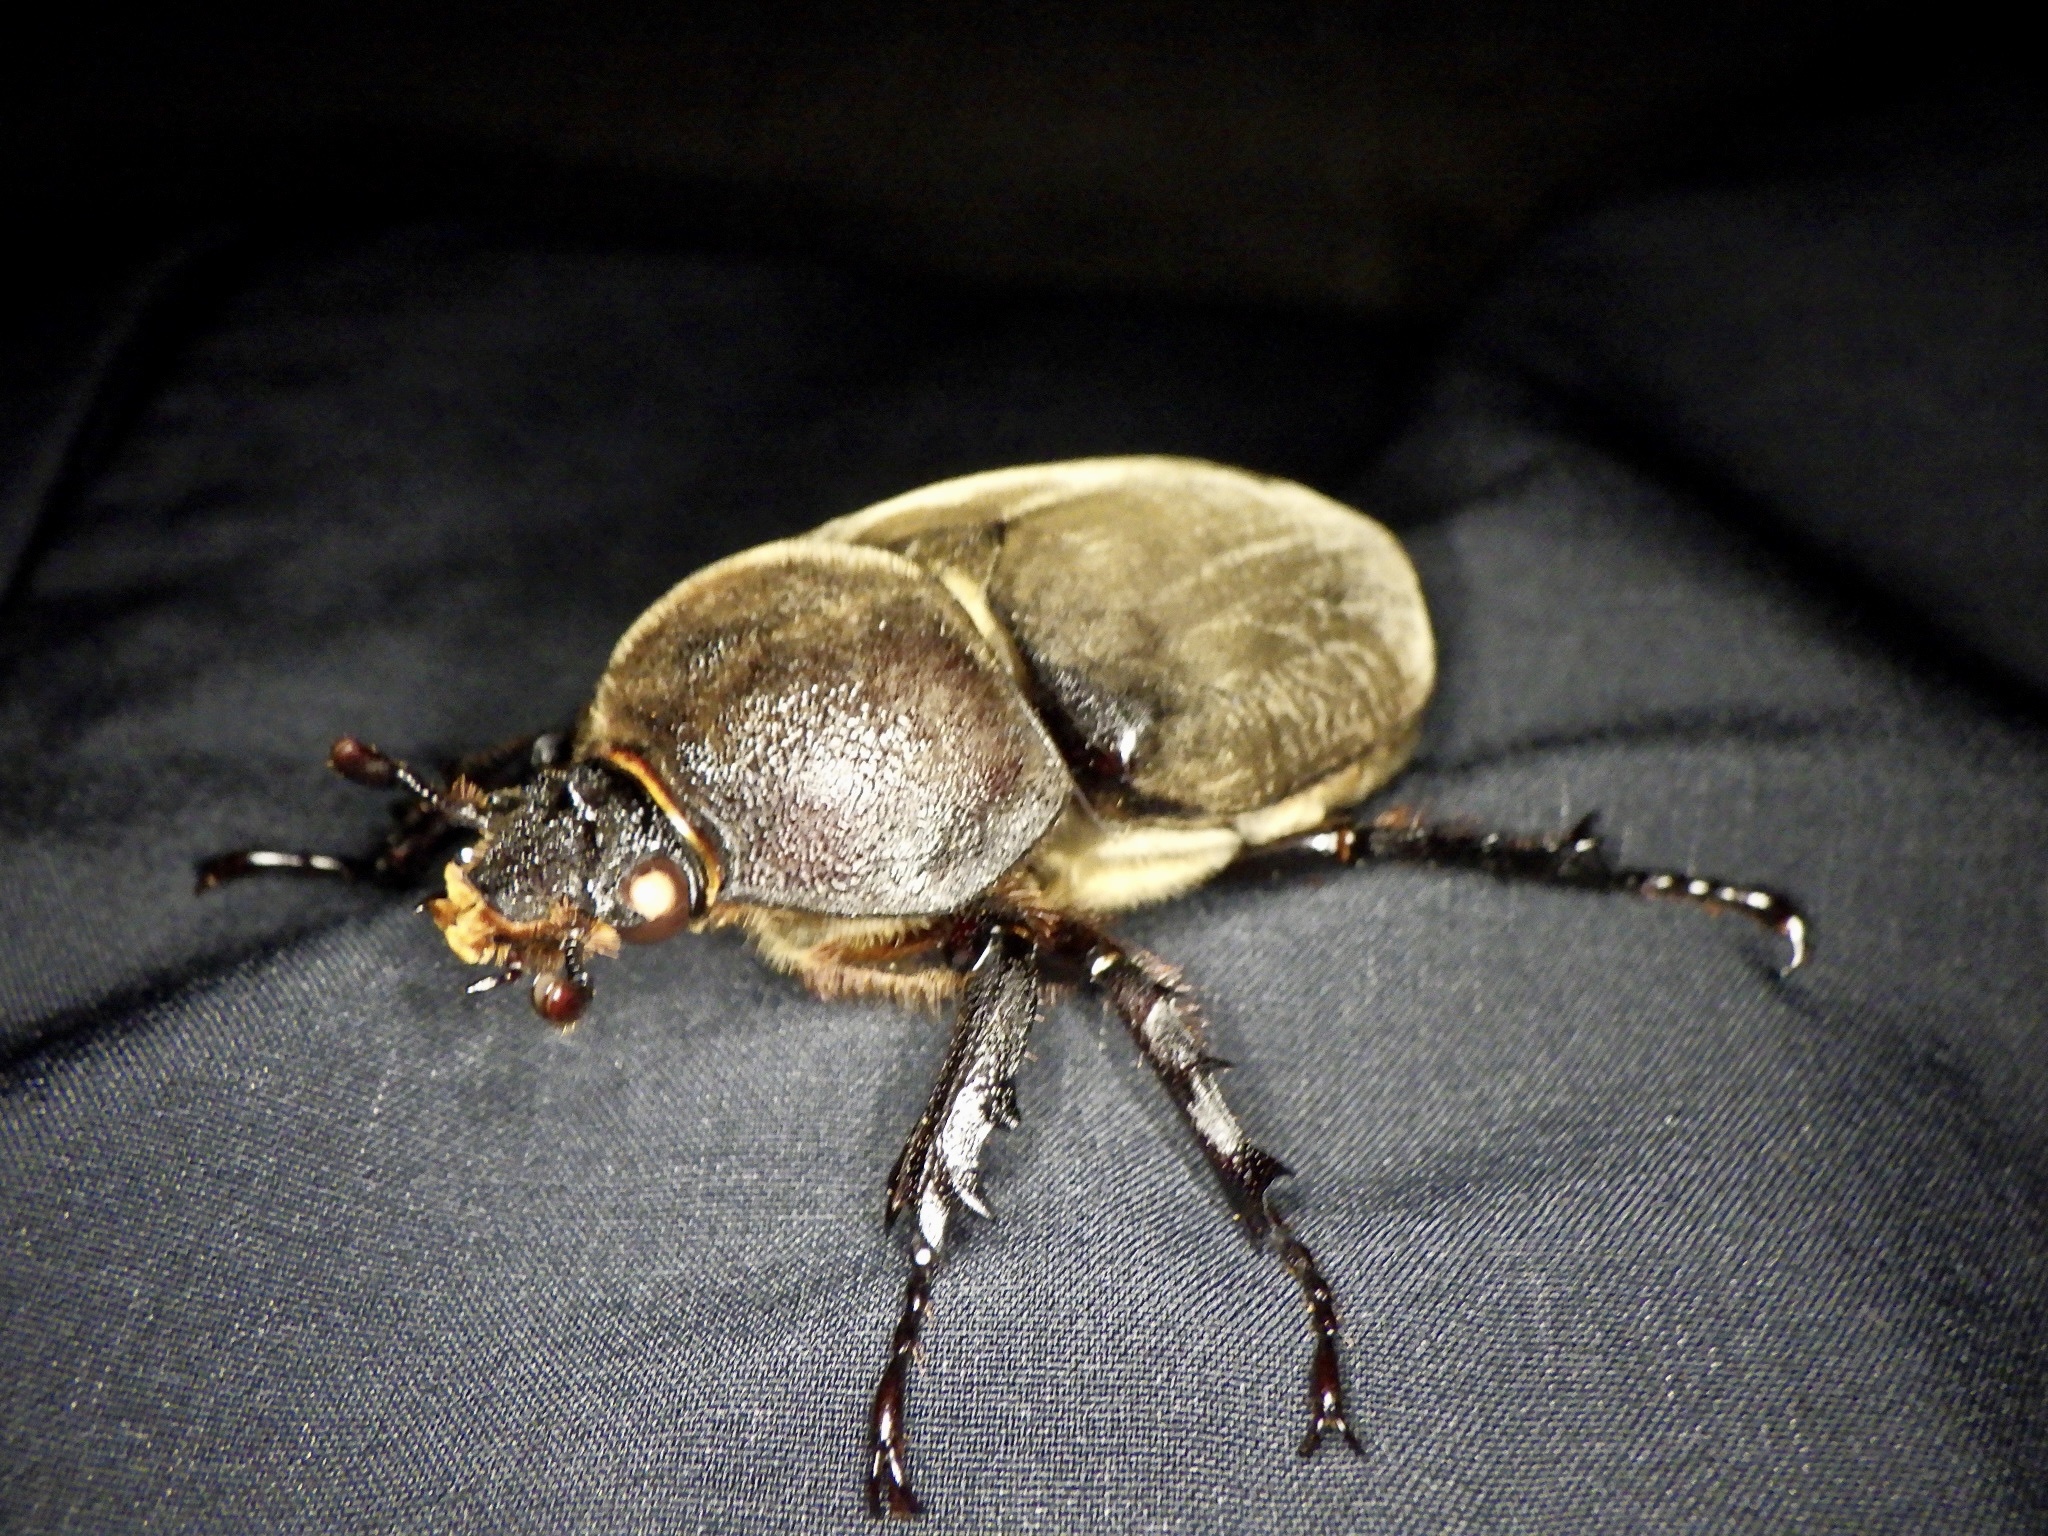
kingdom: Animalia
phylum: Arthropoda
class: Insecta
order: Coleoptera
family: Scarabaeidae
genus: Trypoxylus
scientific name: Trypoxylus dichotomus
